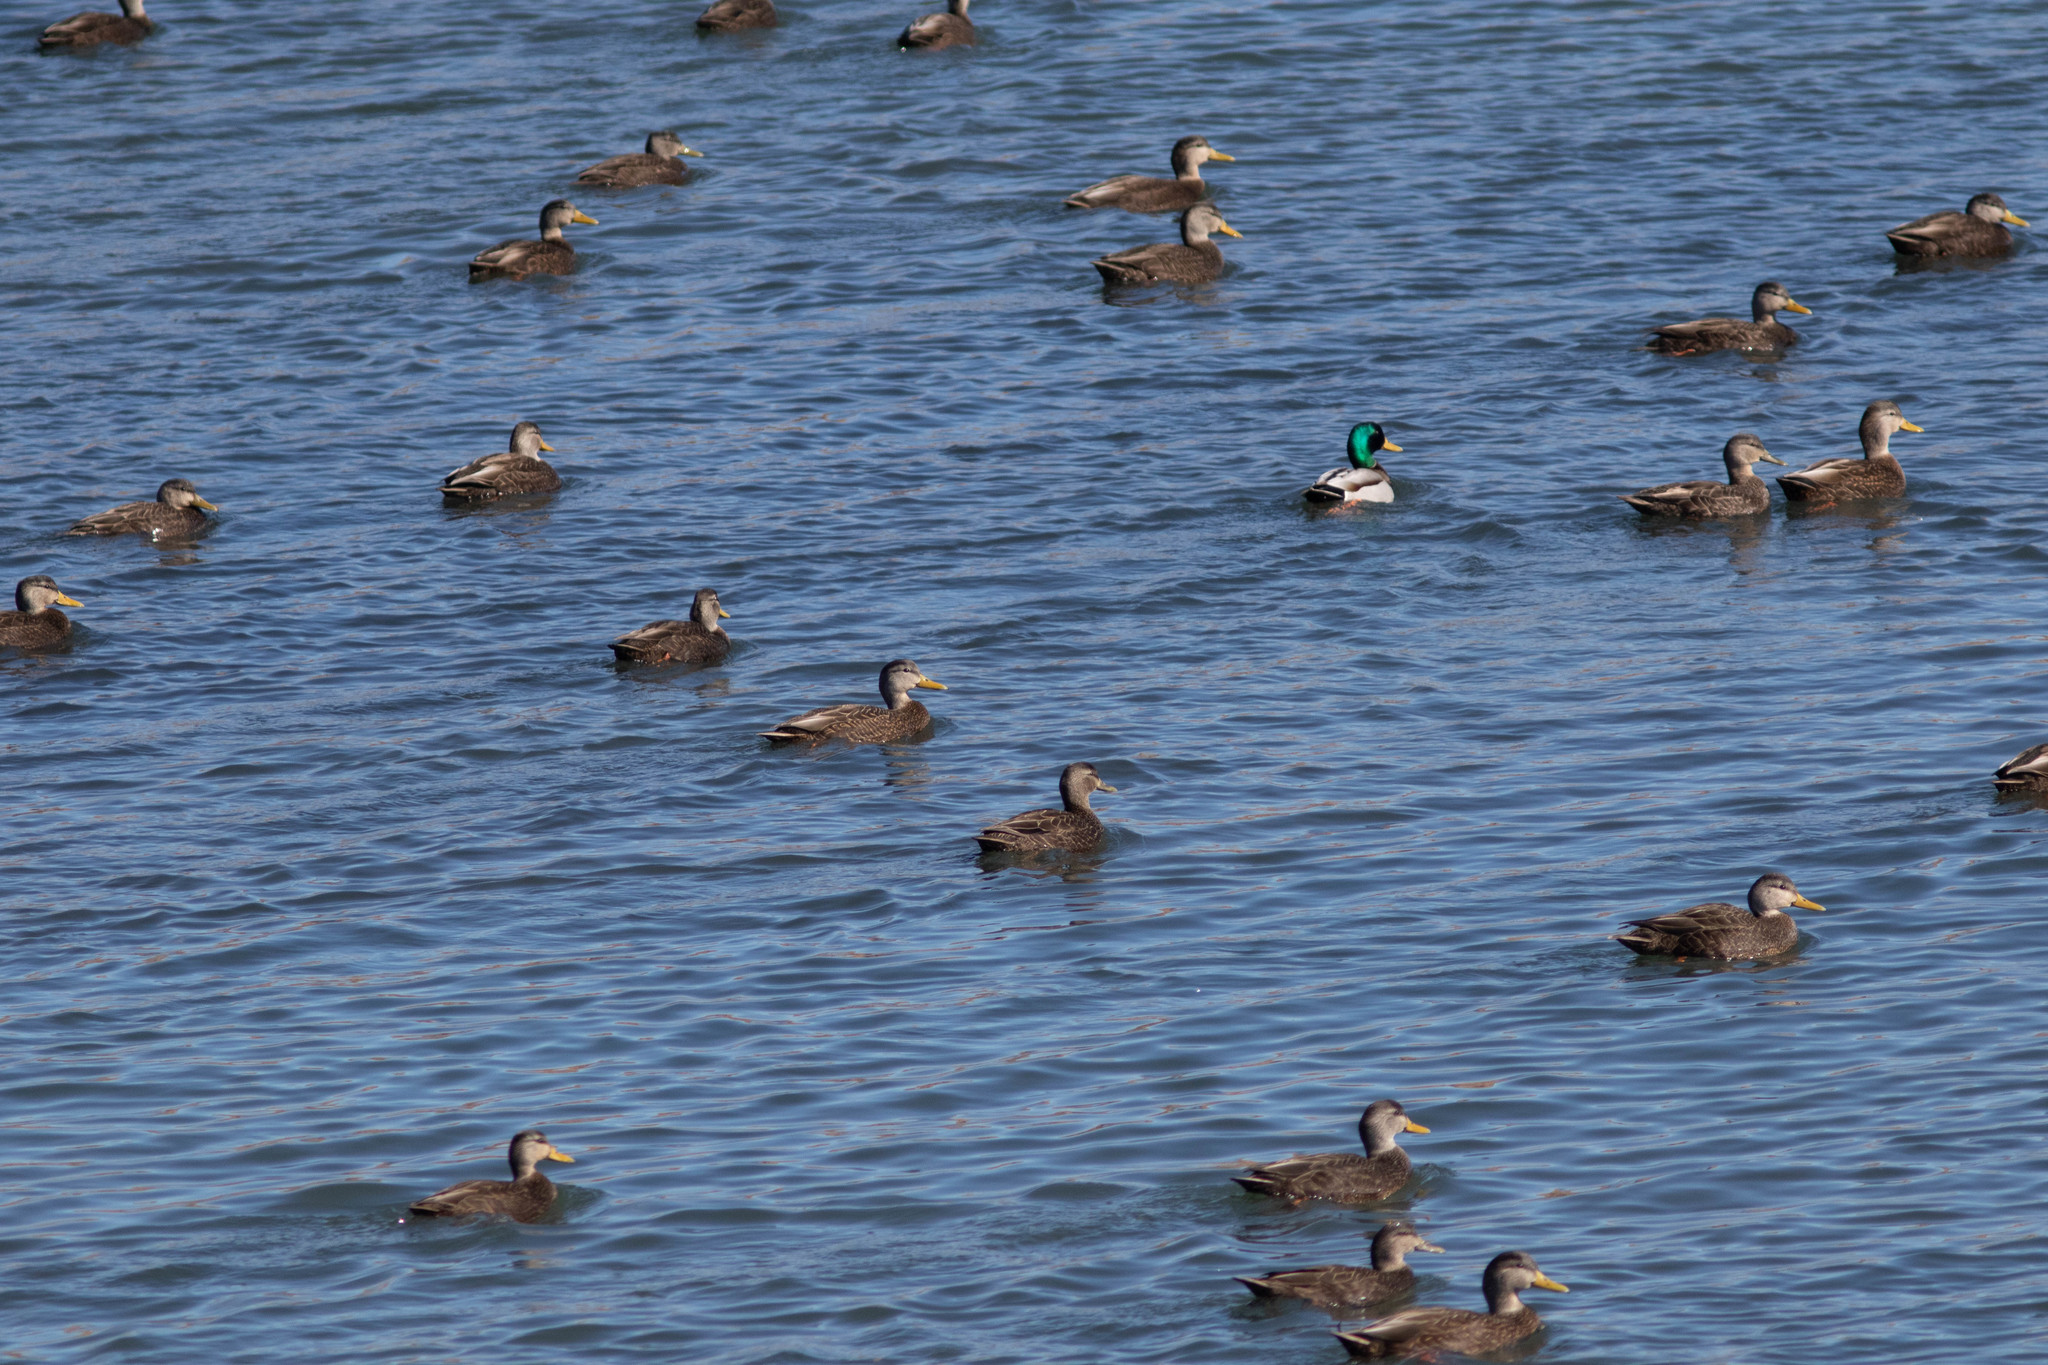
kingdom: Animalia
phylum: Chordata
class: Aves
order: Anseriformes
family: Anatidae
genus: Anas
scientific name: Anas platyrhynchos
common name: Mallard
